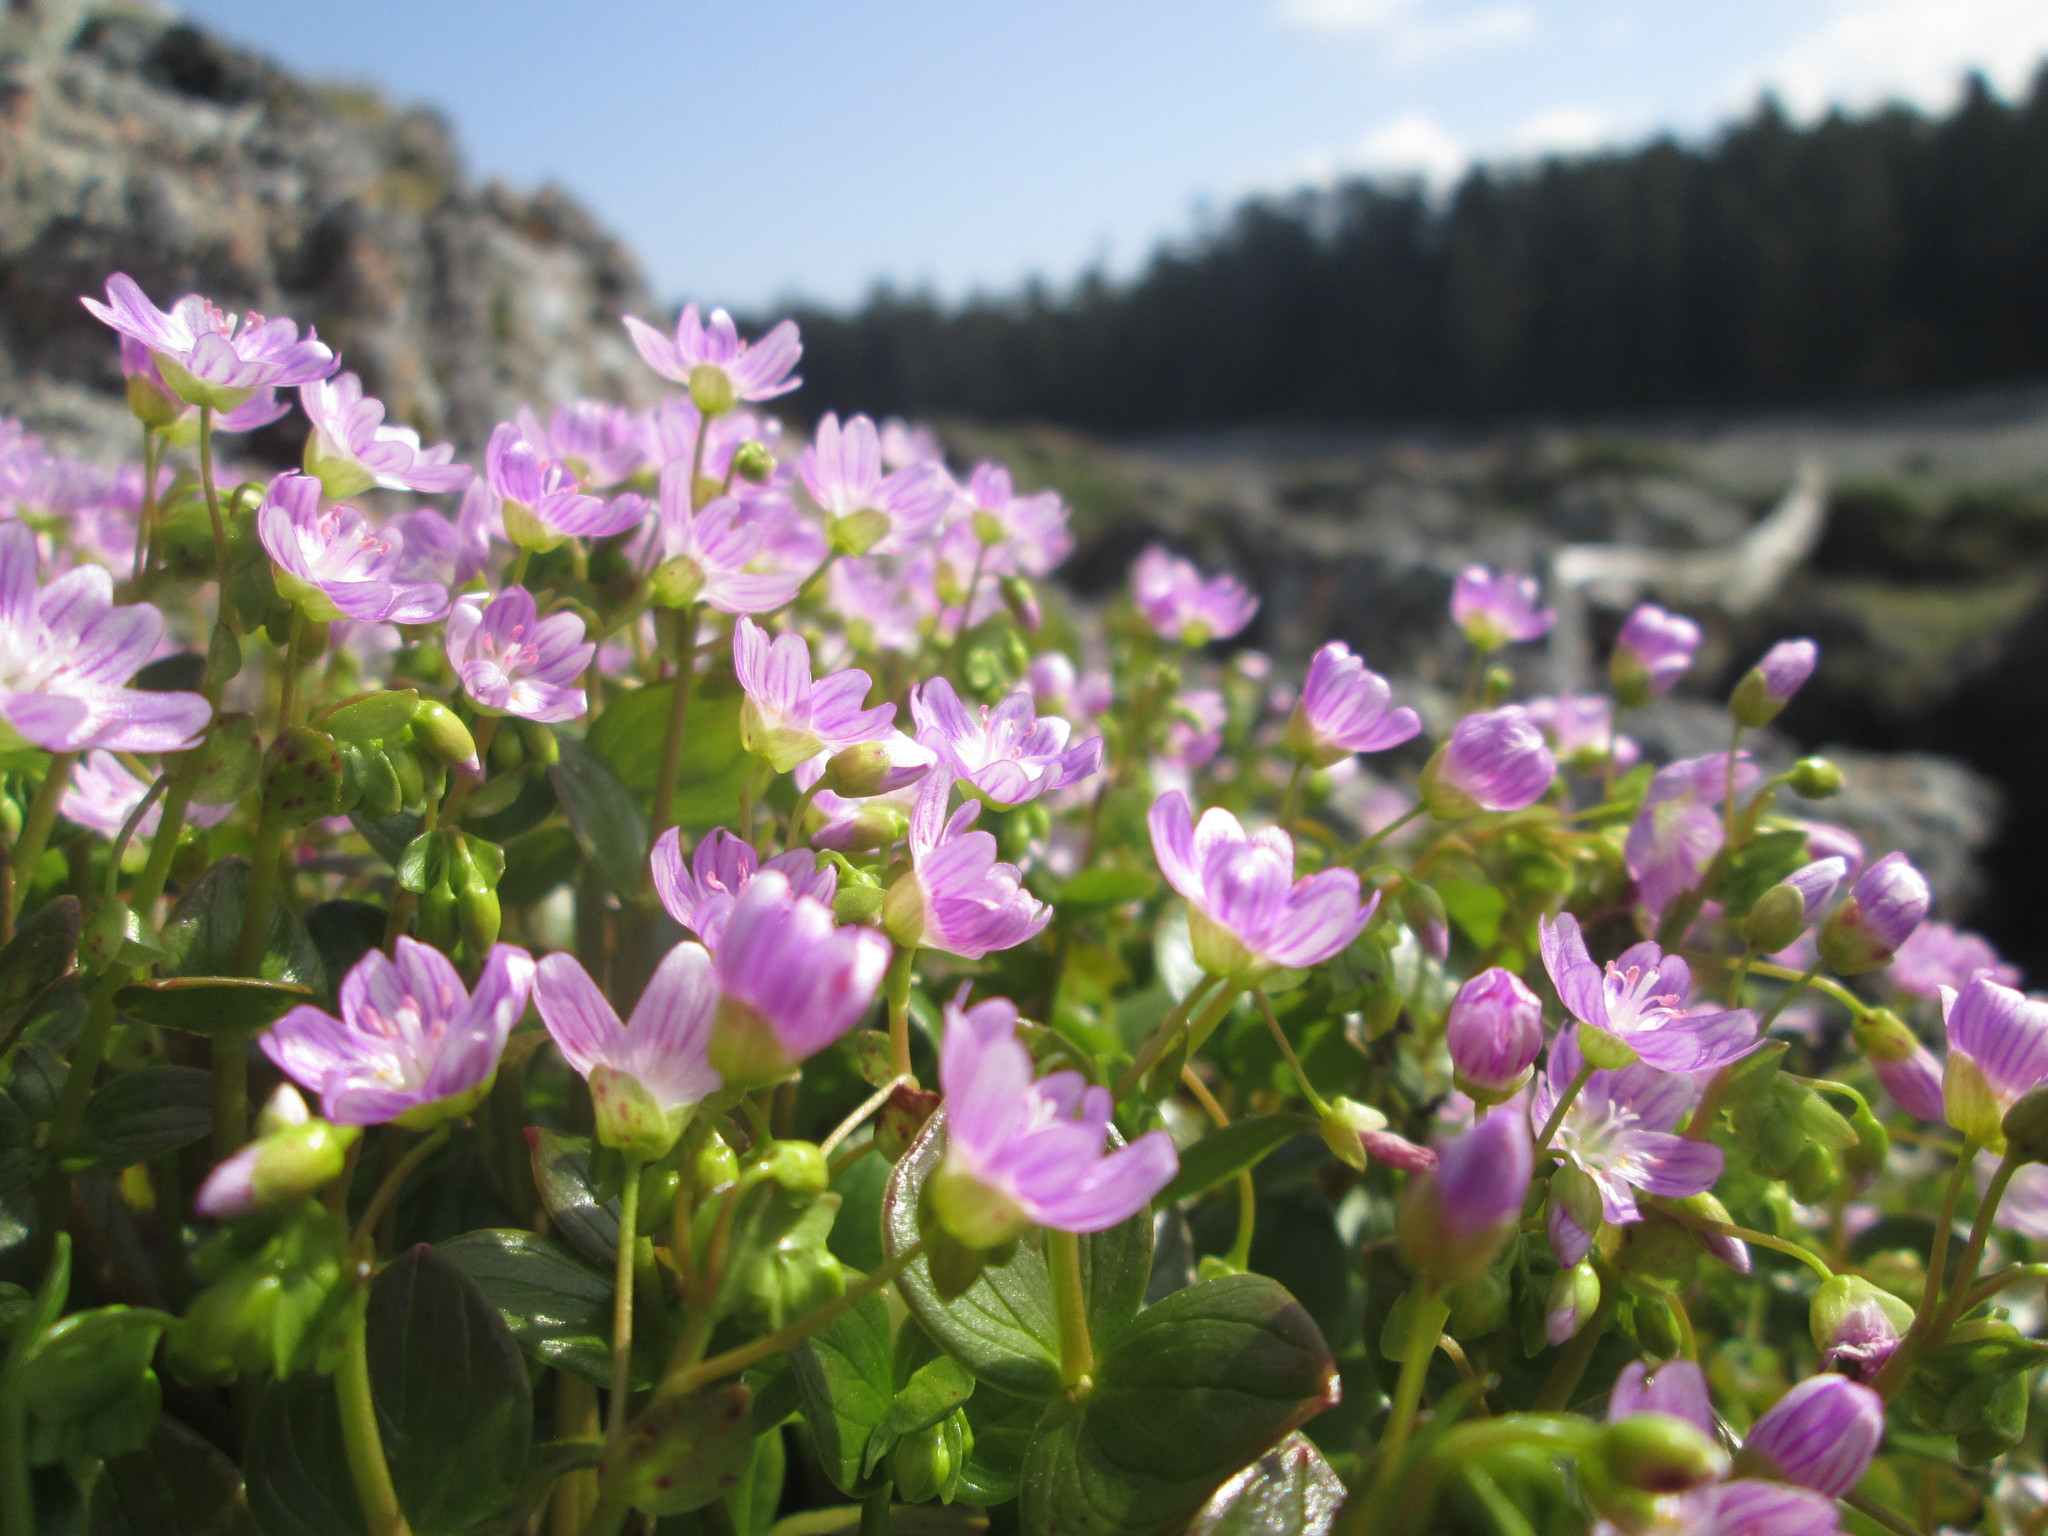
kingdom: Plantae
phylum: Tracheophyta
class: Magnoliopsida
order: Caryophyllales
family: Montiaceae
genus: Claytonia
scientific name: Claytonia sibirica
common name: Pink purslane
